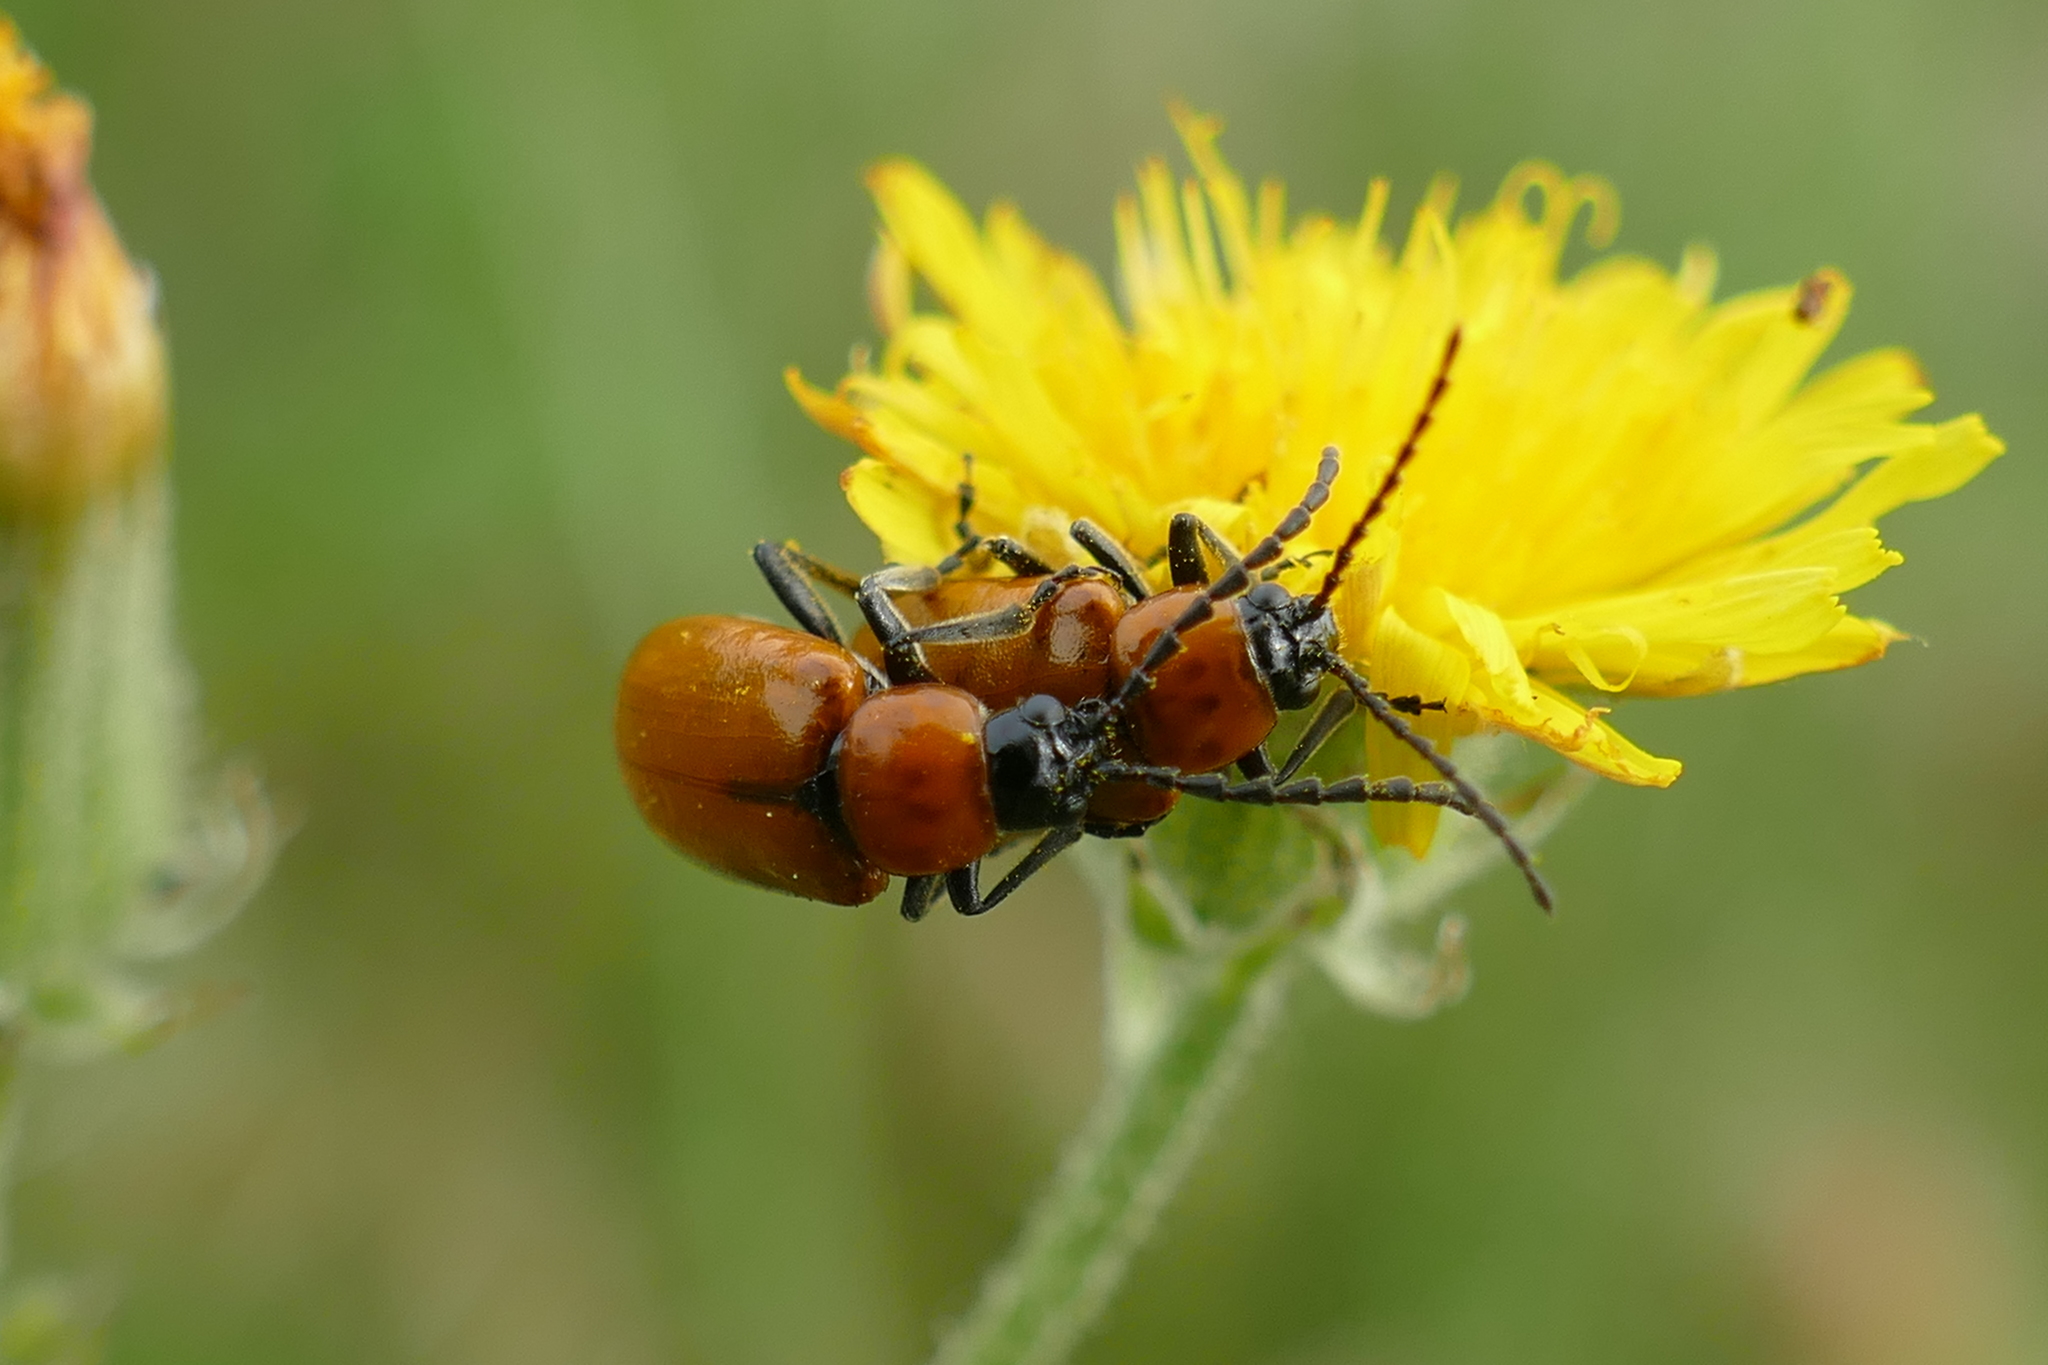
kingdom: Animalia
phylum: Arthropoda
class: Insecta
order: Coleoptera
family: Chrysomelidae
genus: Exosoma
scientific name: Exosoma lusitanicum
